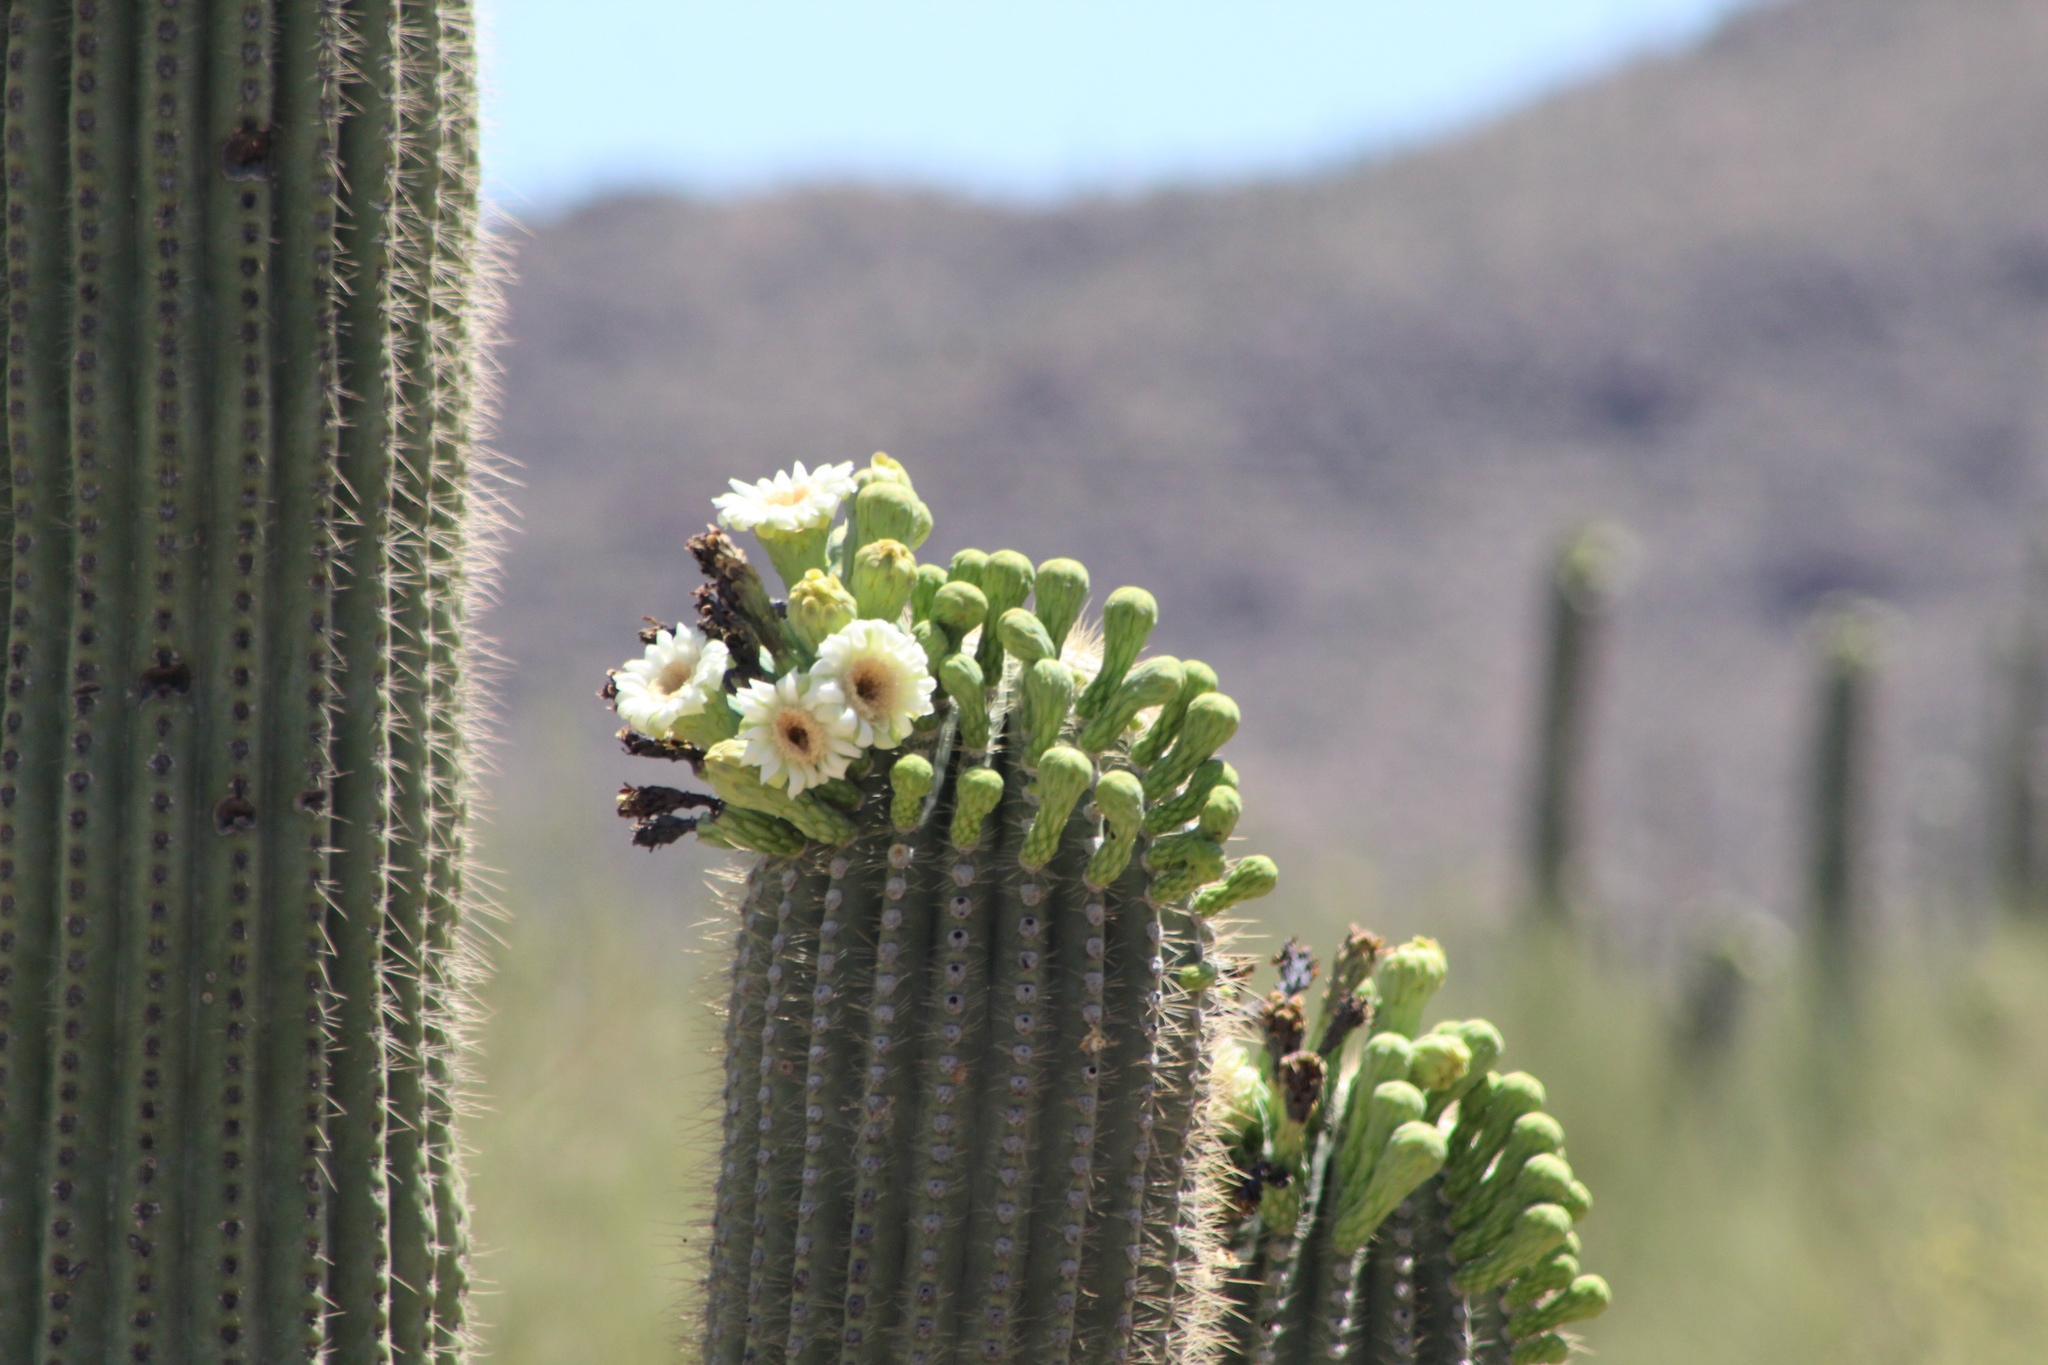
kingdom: Plantae
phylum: Tracheophyta
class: Magnoliopsida
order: Caryophyllales
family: Cactaceae
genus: Carnegiea
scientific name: Carnegiea gigantea
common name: Saguaro
